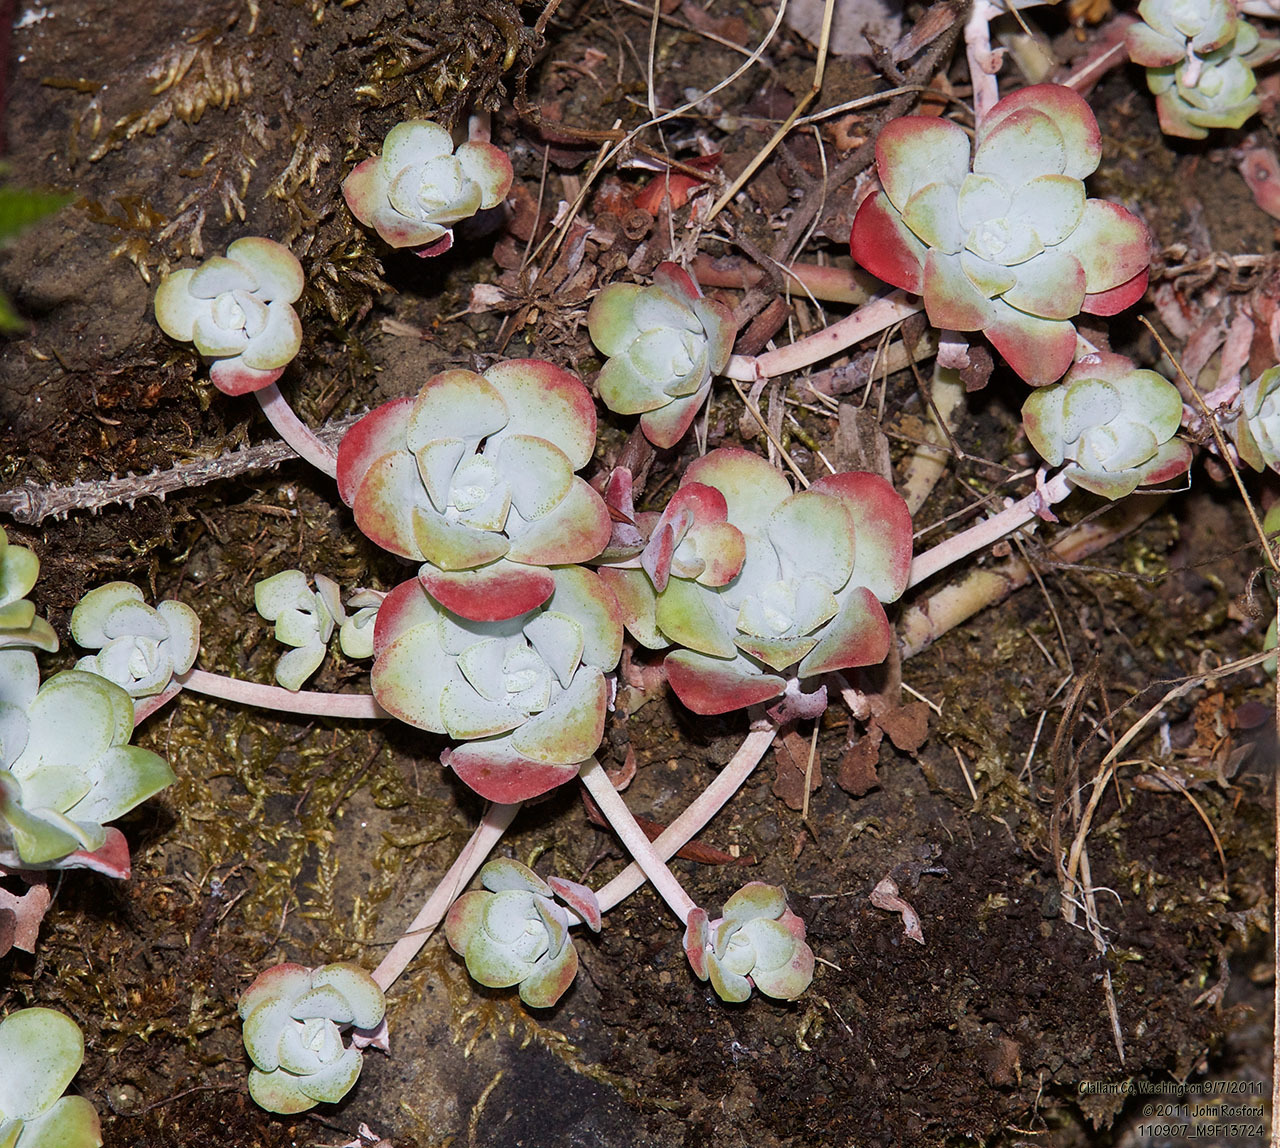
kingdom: Plantae
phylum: Tracheophyta
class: Magnoliopsida
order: Saxifragales
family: Crassulaceae
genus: Sedum
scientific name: Sedum spathulifolium
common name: Colorado stonecrop
